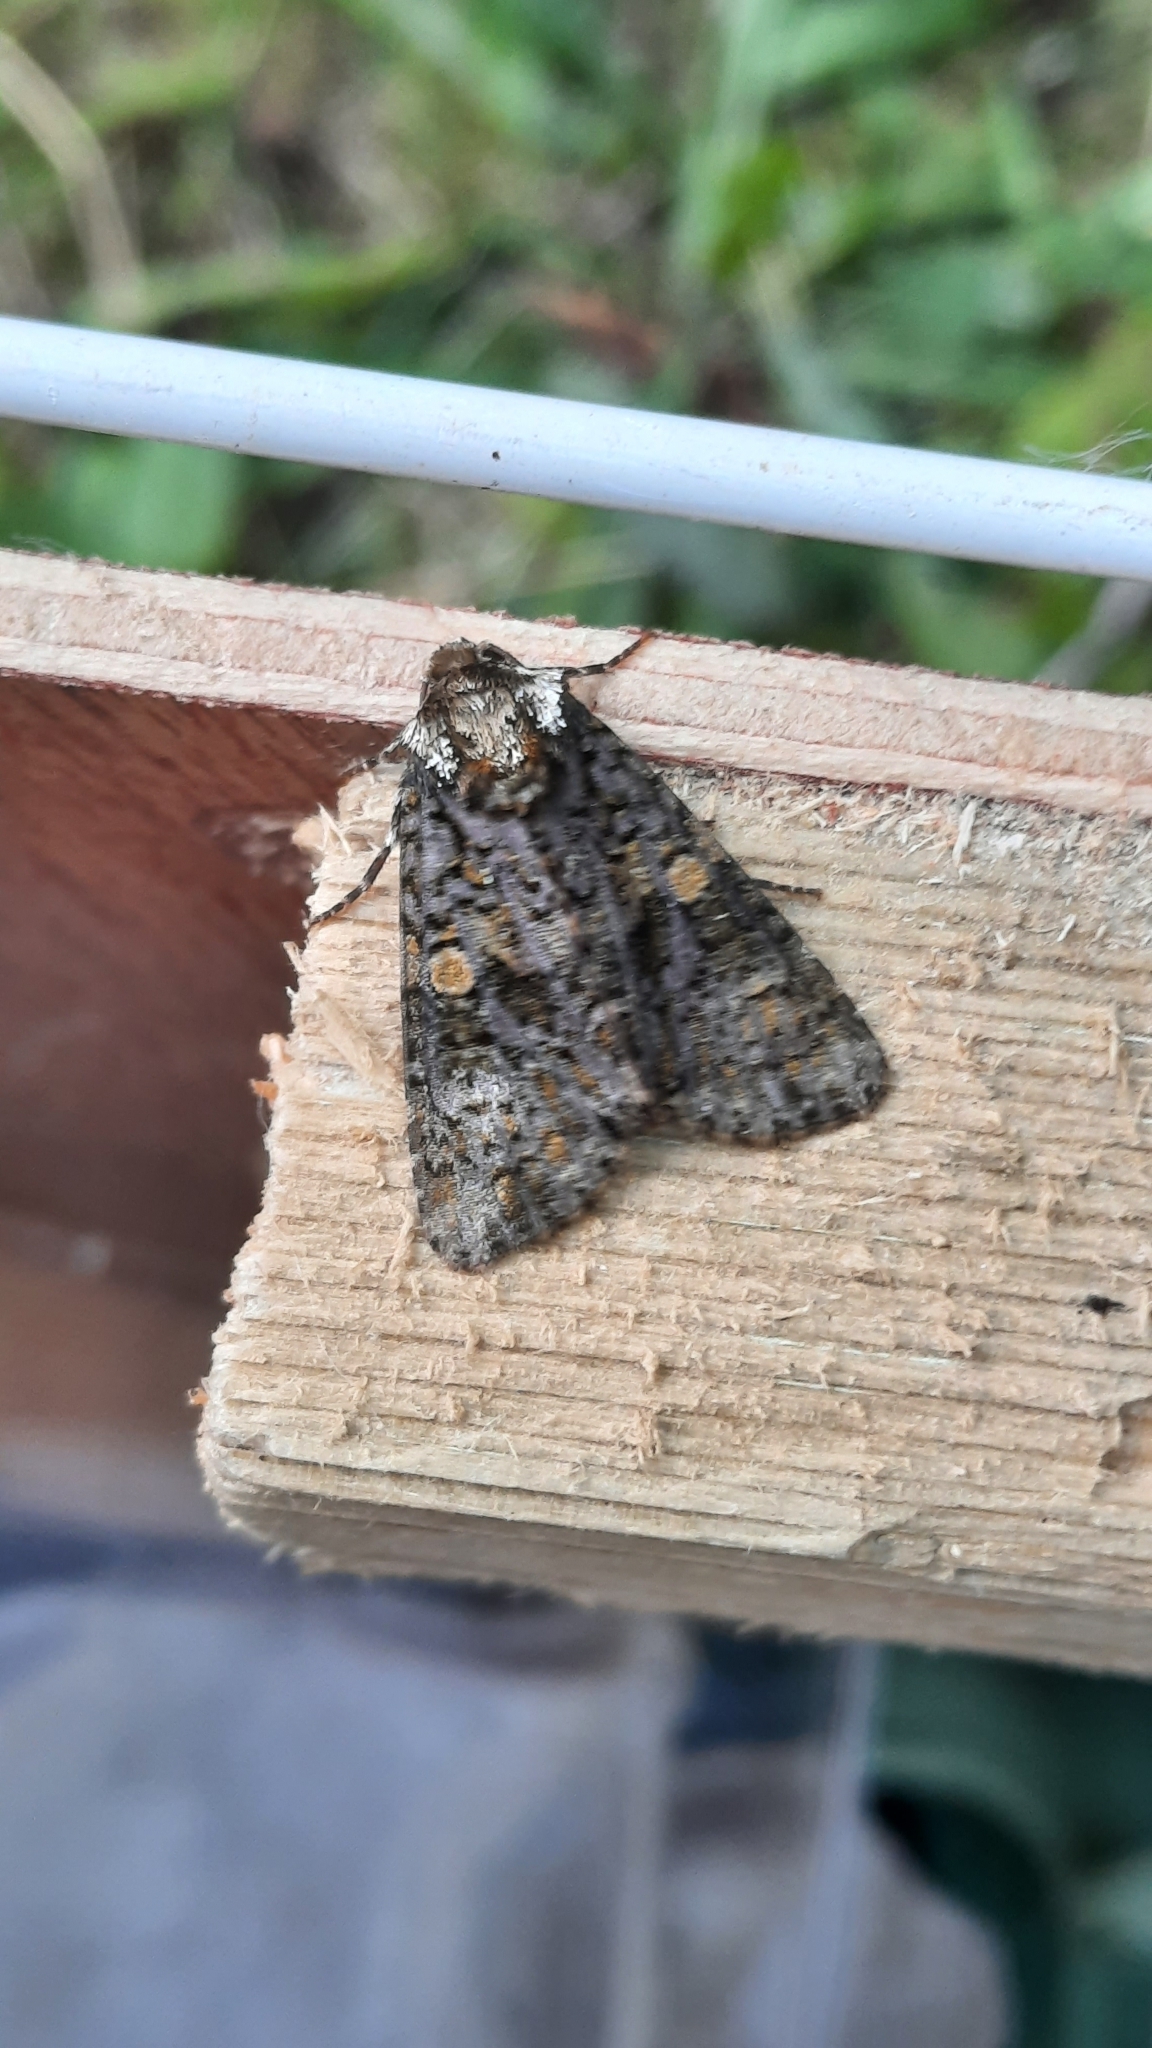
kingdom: Animalia
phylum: Arthropoda
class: Insecta
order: Lepidoptera
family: Noctuidae
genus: Craniophora
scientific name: Craniophora ligustri
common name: Coronet
